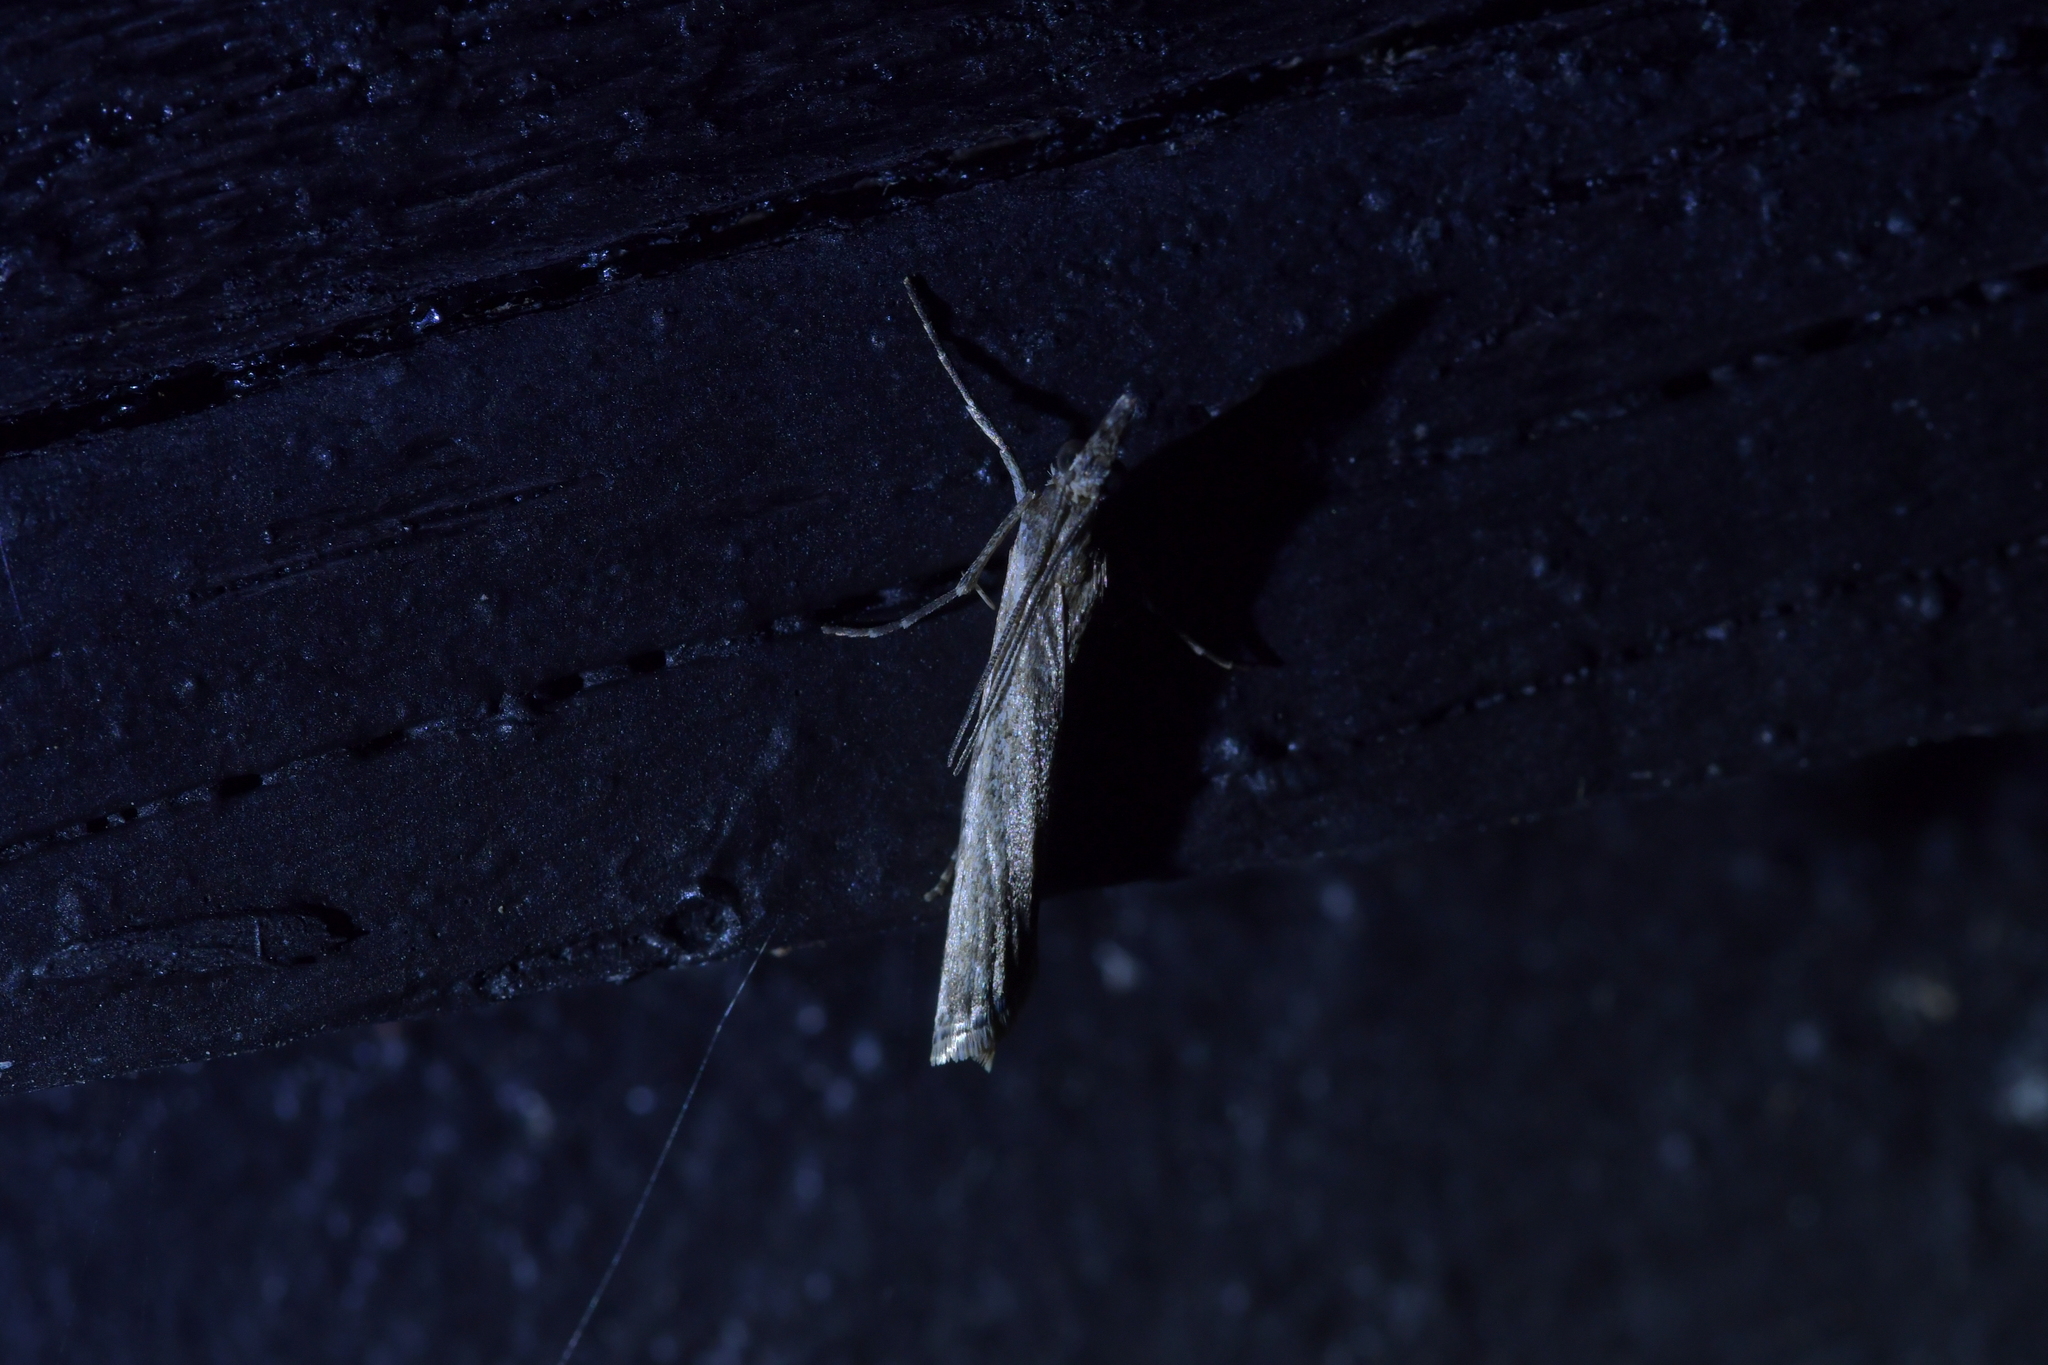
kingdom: Animalia
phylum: Arthropoda
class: Insecta
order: Lepidoptera
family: Crambidae
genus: Eudonia
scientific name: Eudonia leptalea
